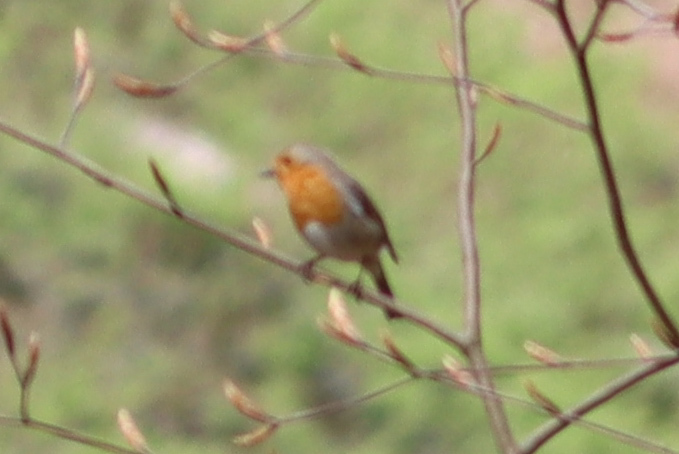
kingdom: Animalia
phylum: Chordata
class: Aves
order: Passeriformes
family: Muscicapidae
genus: Erithacus
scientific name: Erithacus rubecula
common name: European robin
